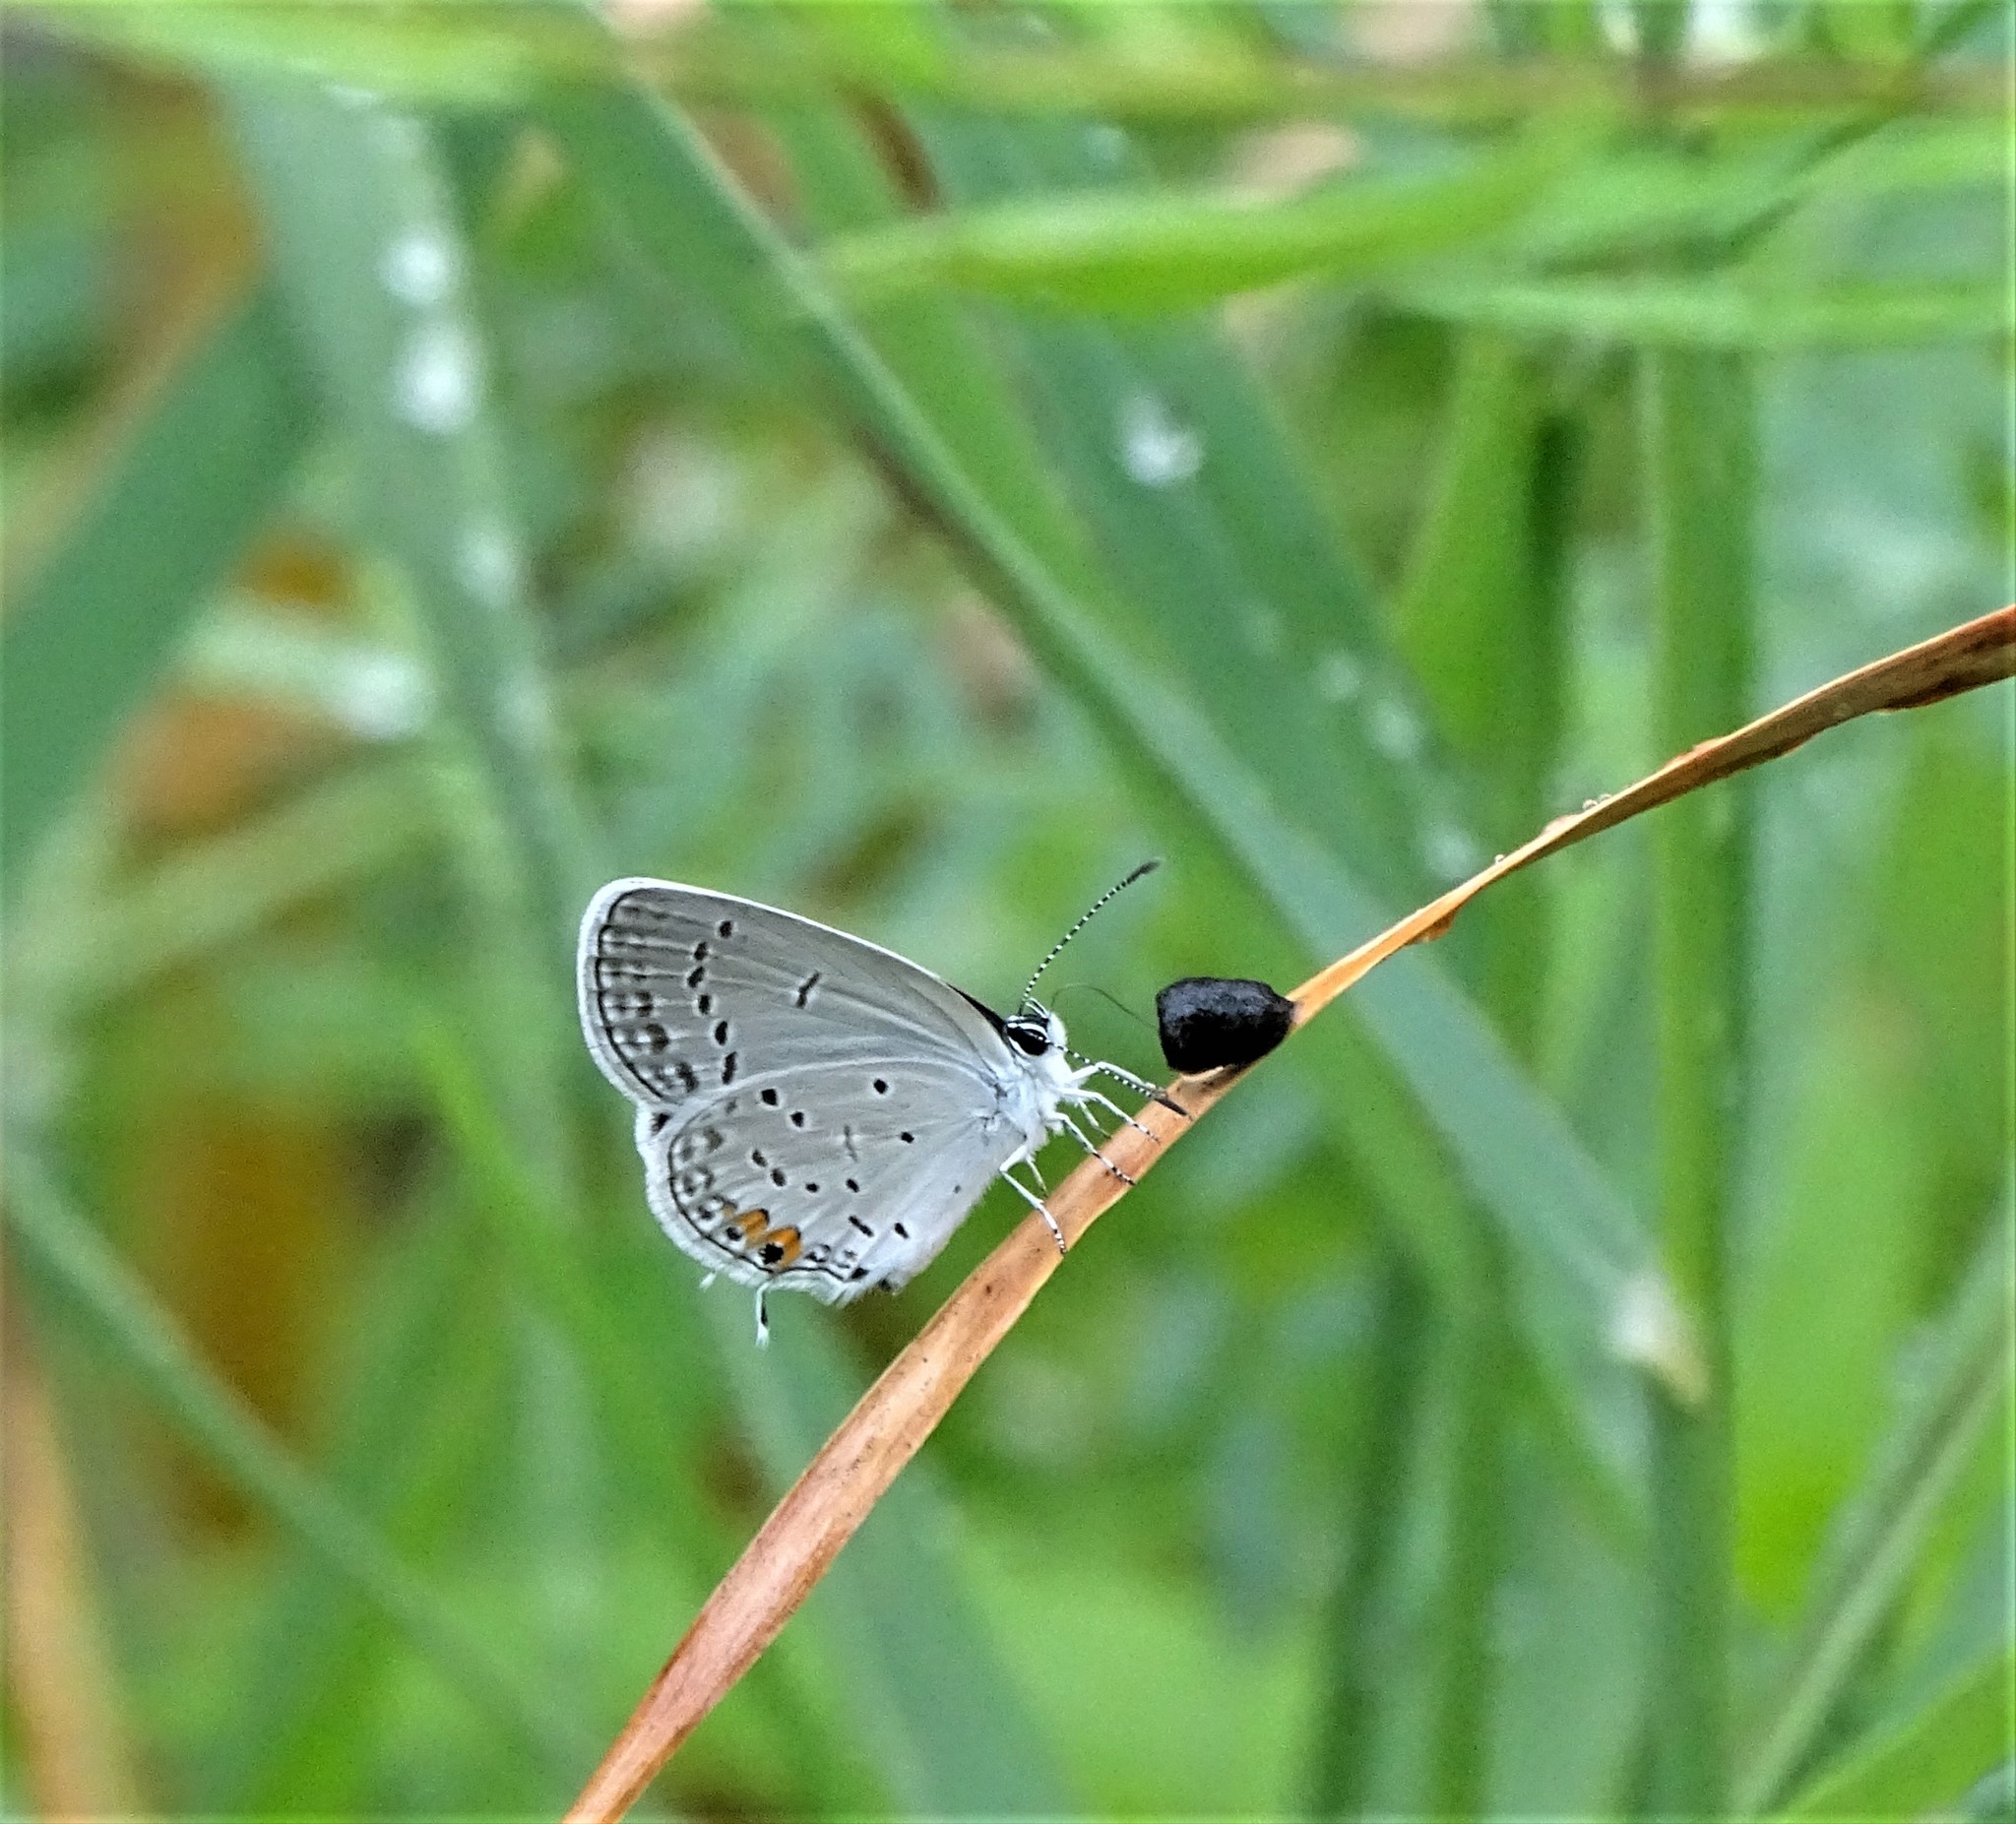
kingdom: Animalia
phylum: Arthropoda
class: Insecta
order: Lepidoptera
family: Lycaenidae
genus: Elkalyce
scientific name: Elkalyce comyntas
